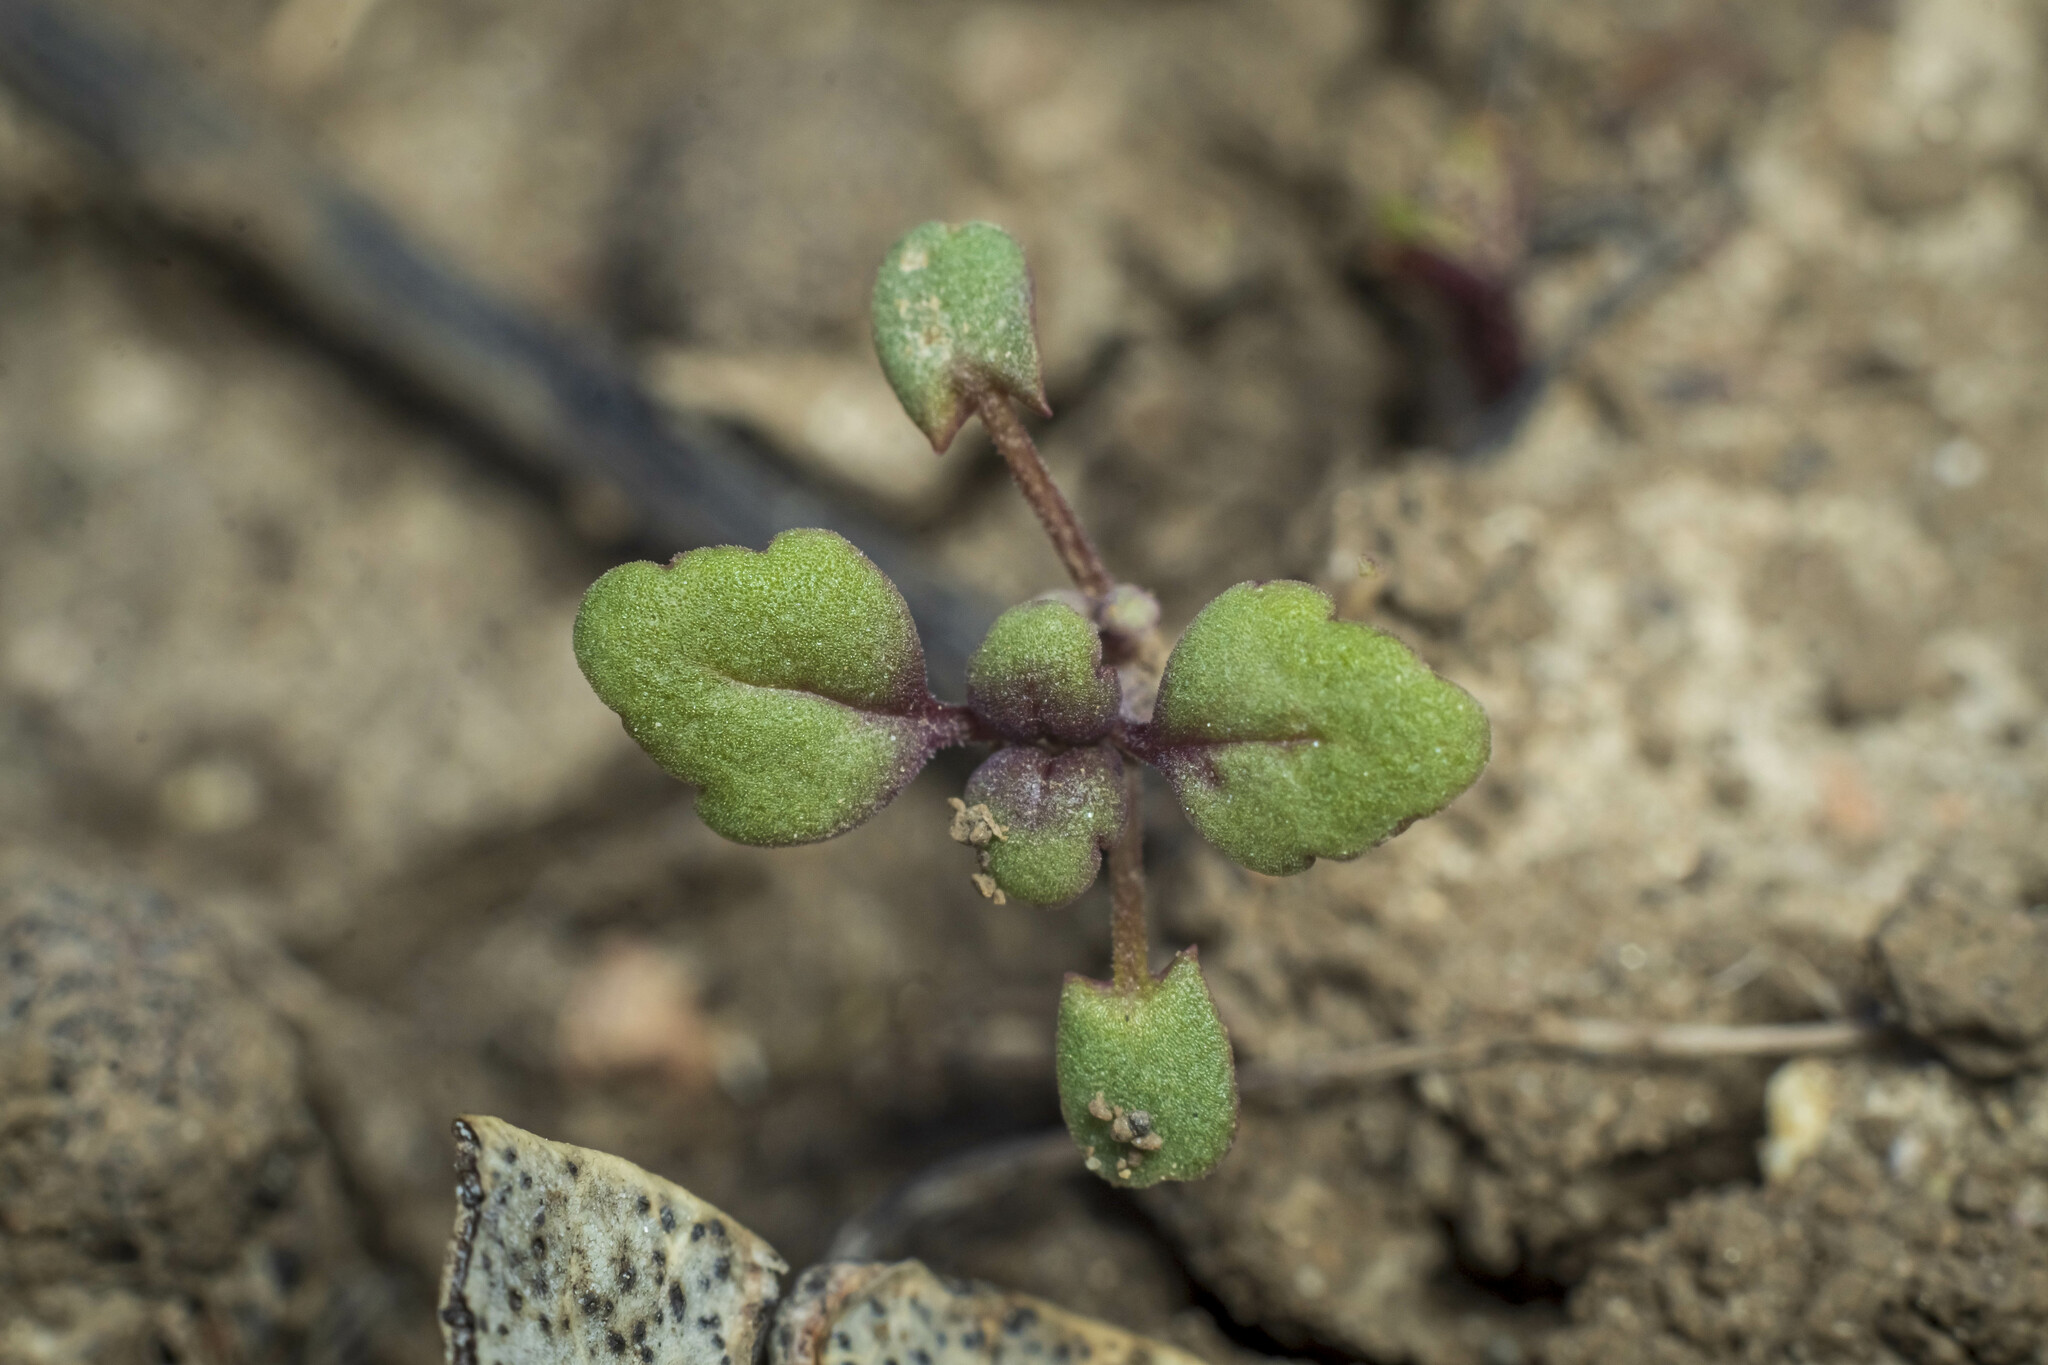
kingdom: Plantae
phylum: Tracheophyta
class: Magnoliopsida
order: Lamiales
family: Lamiaceae
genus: Acanthomintha
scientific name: Acanthomintha ilicifolia
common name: San diego thorn-mint
